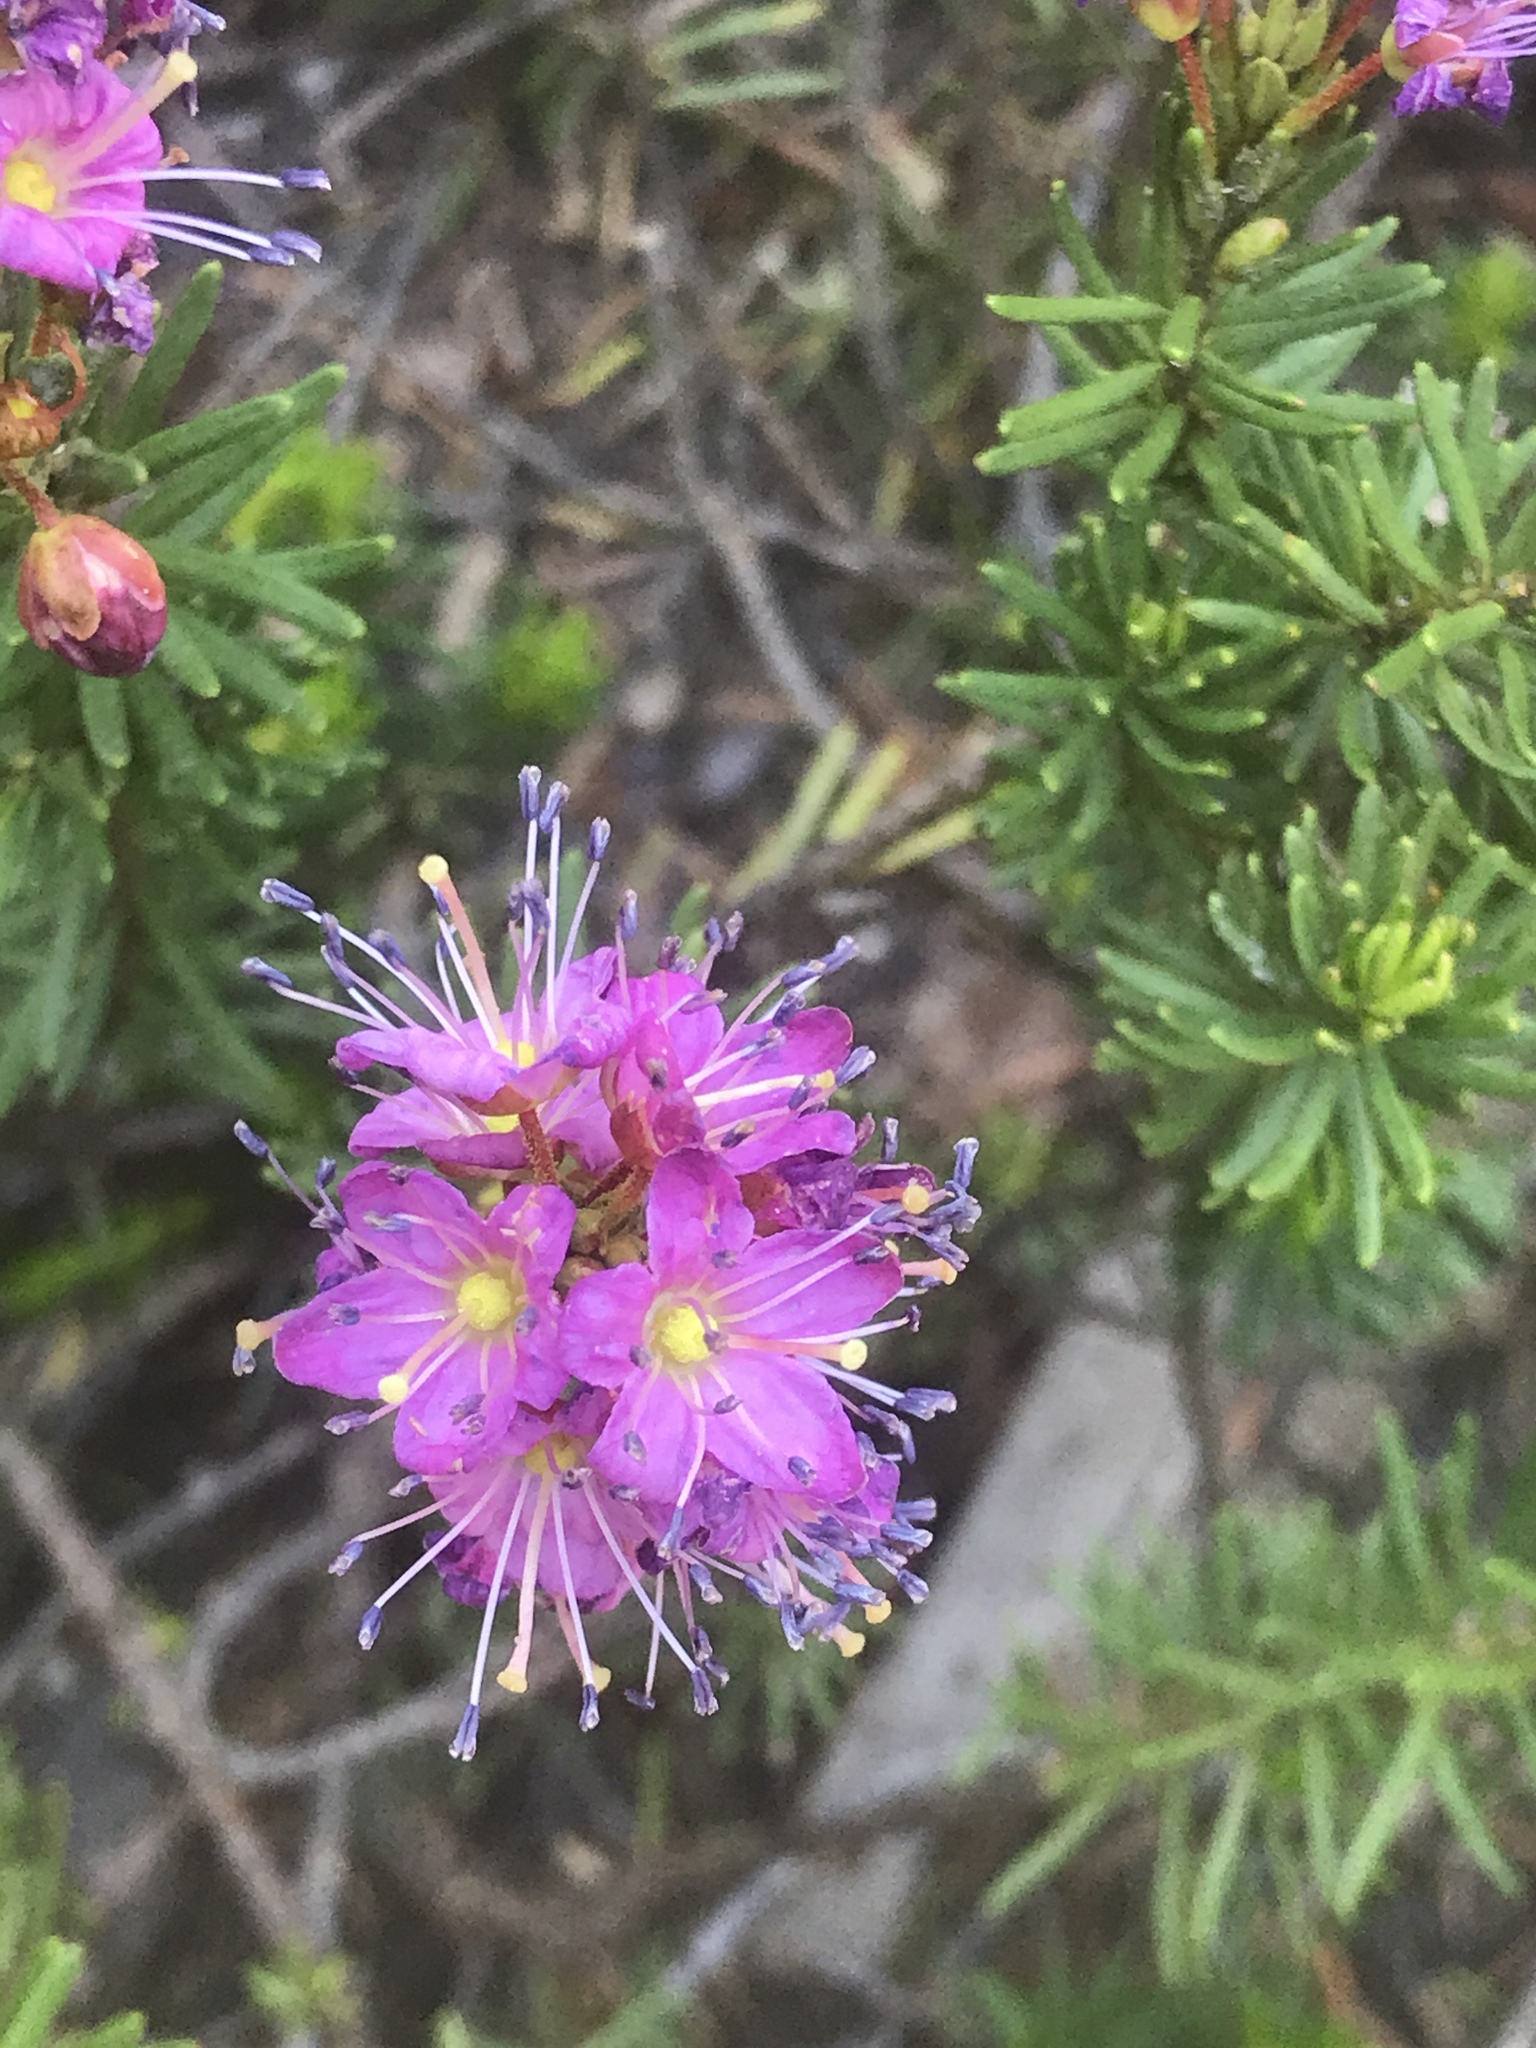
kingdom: Plantae
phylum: Tracheophyta
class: Magnoliopsida
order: Ericales
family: Ericaceae
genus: Phyllodoce
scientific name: Phyllodoce breweri
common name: Brewer's mountain-heather
